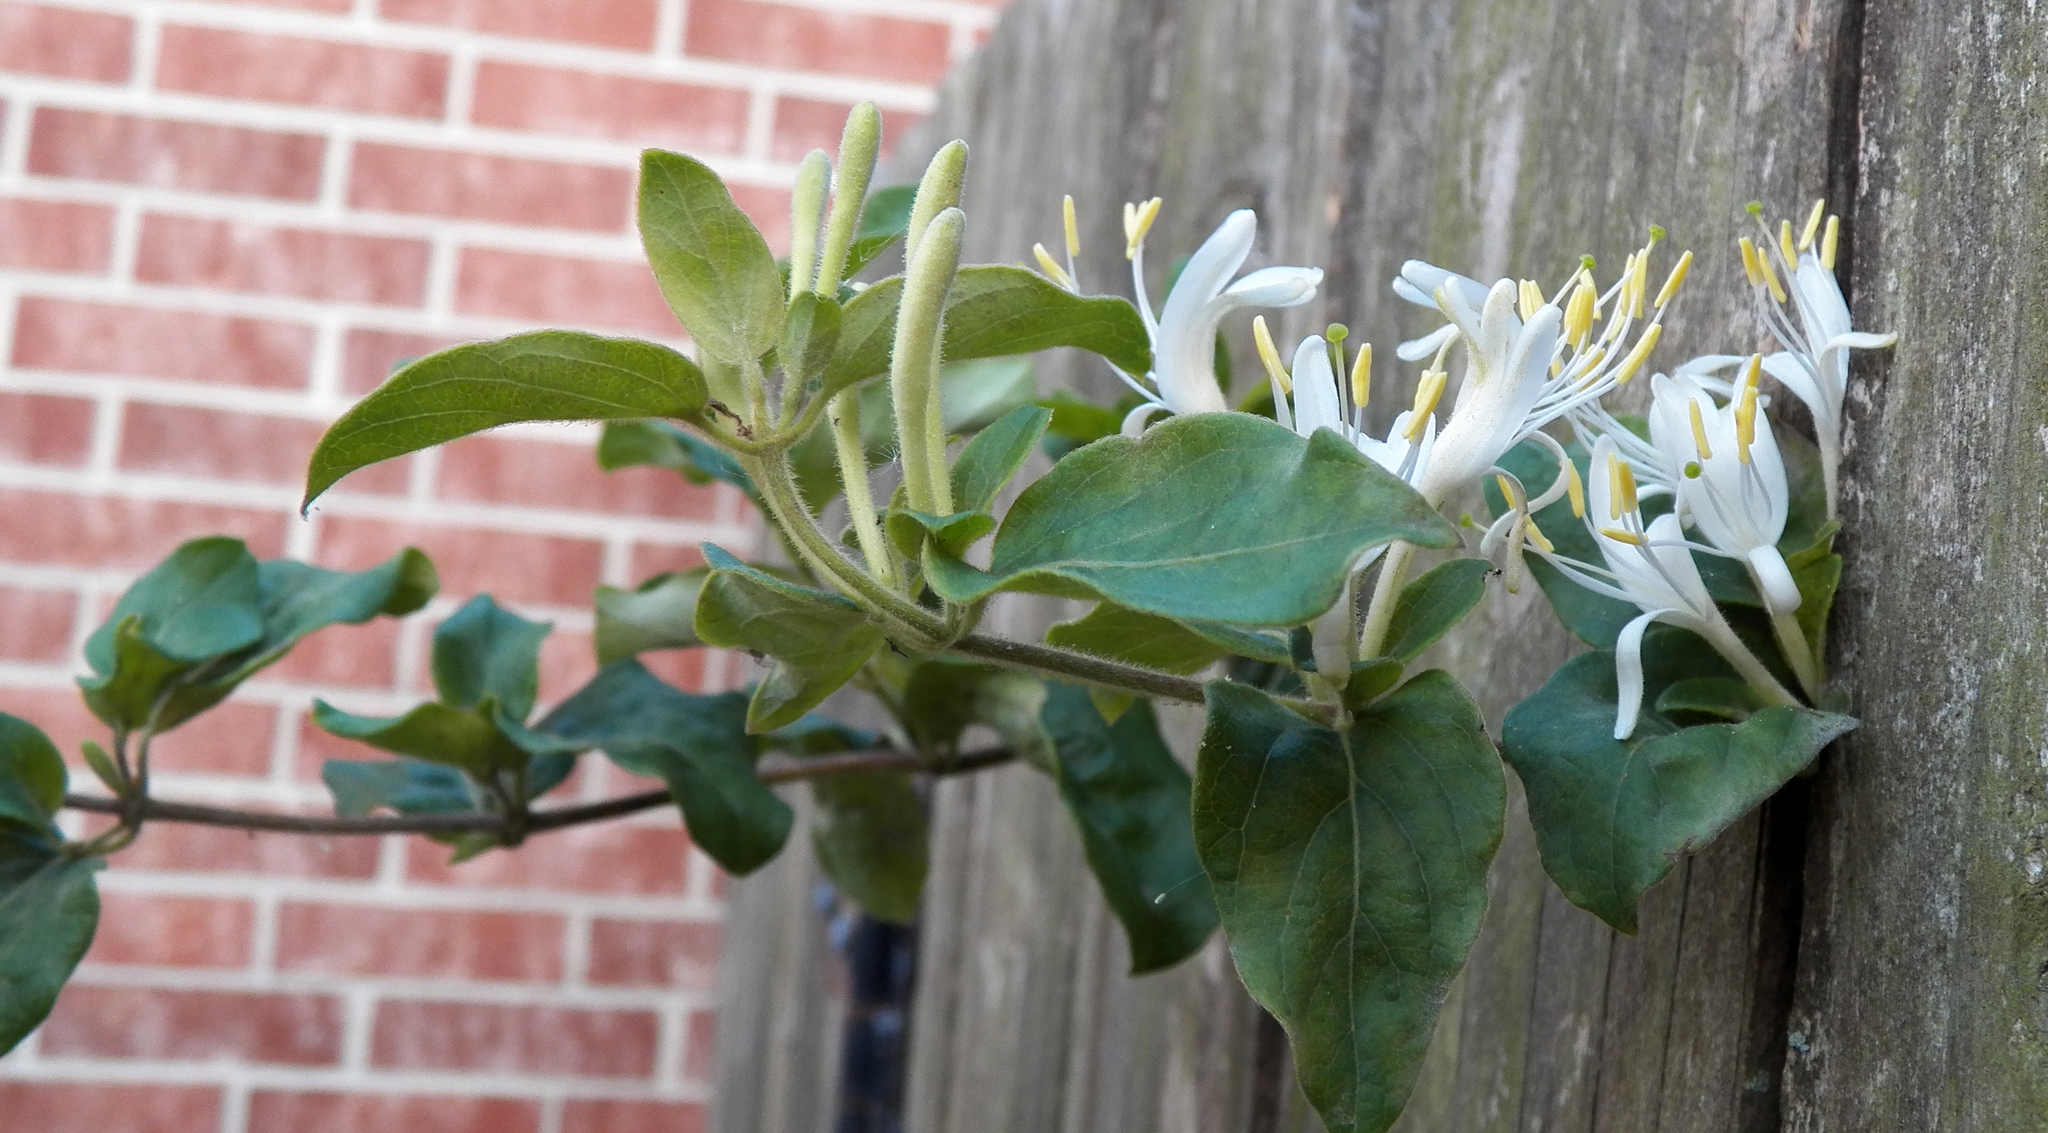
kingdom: Plantae
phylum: Tracheophyta
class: Magnoliopsida
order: Dipsacales
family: Caprifoliaceae
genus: Lonicera
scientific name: Lonicera japonica
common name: Japanese honeysuckle
